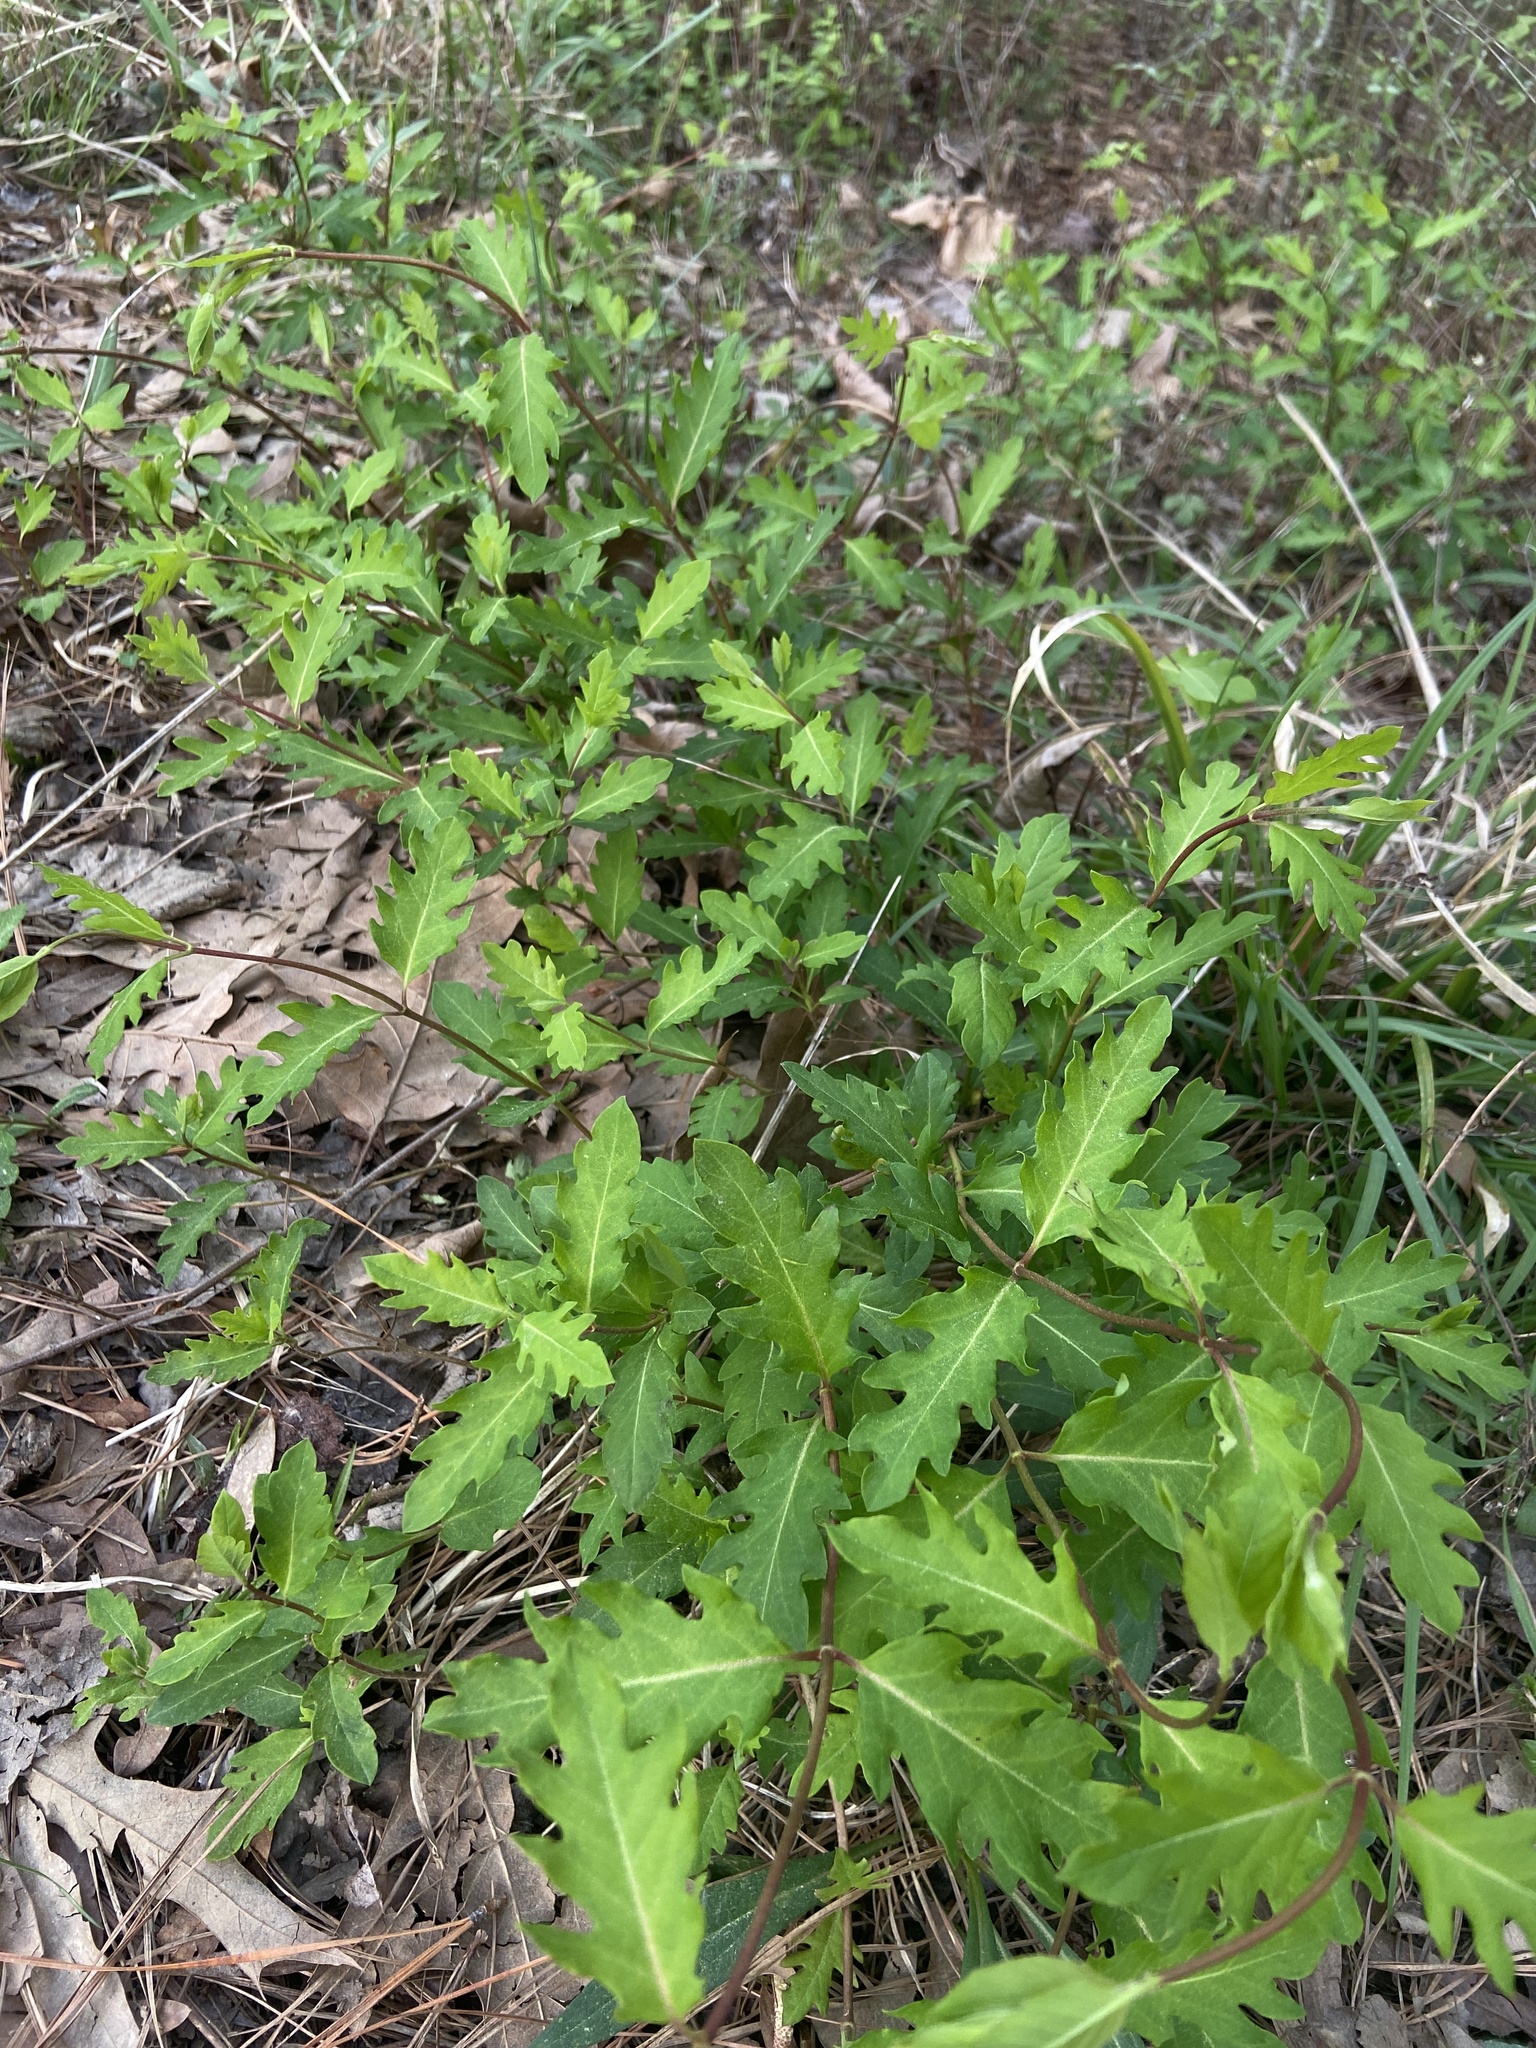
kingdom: Plantae
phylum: Tracheophyta
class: Magnoliopsida
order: Dipsacales
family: Caprifoliaceae
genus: Lonicera
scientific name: Lonicera japonica
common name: Japanese honeysuckle
